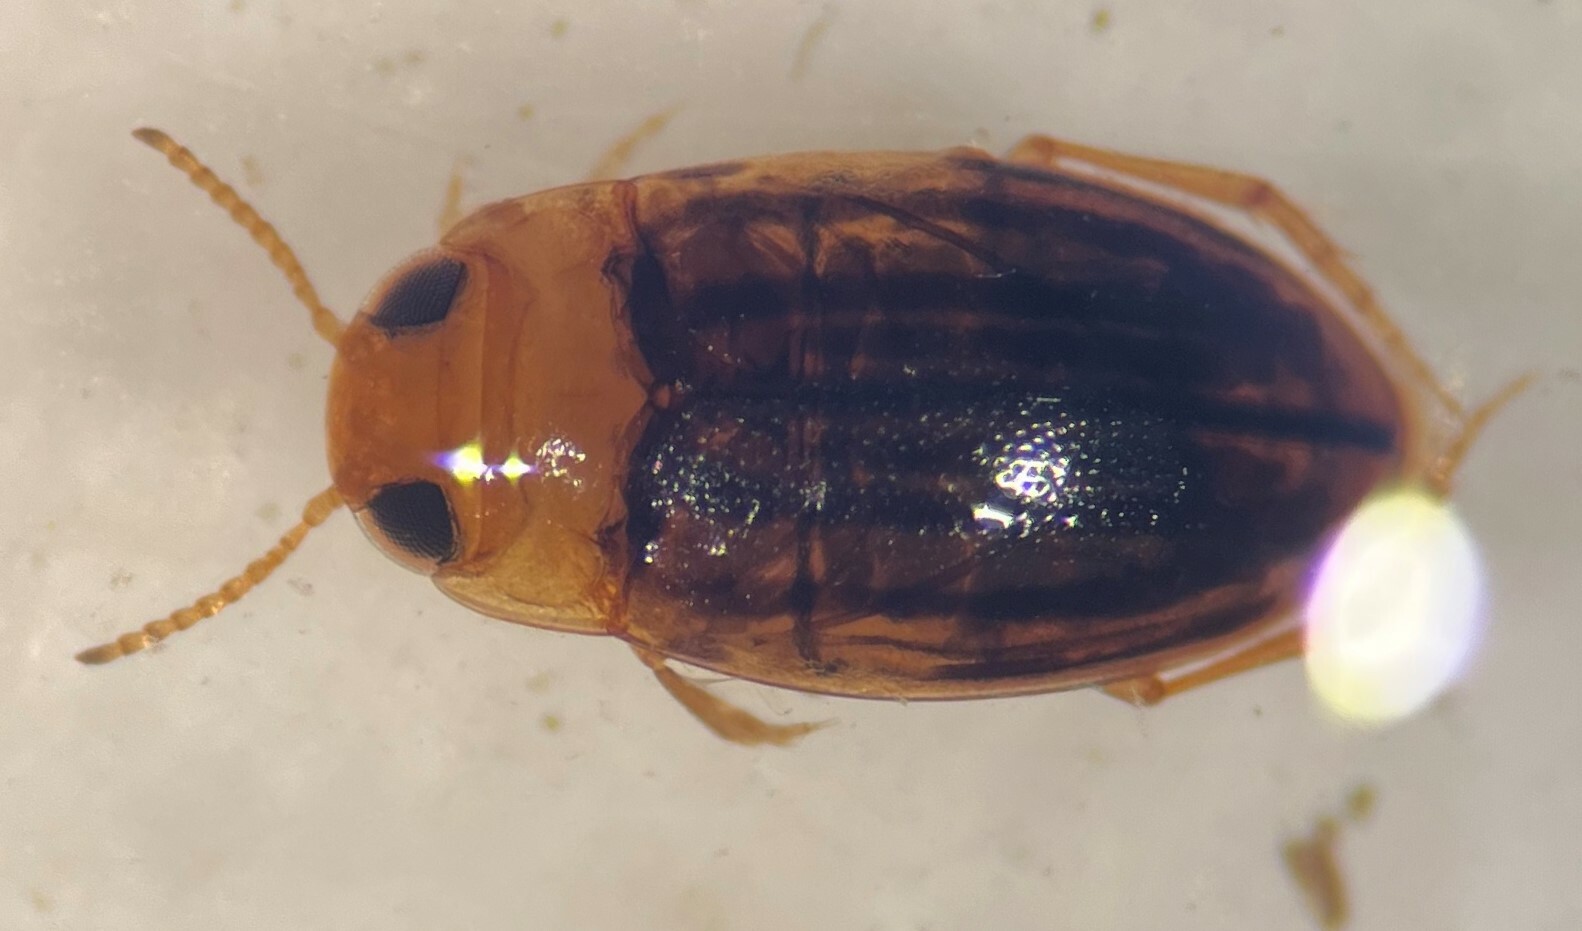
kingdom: Animalia
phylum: Arthropoda
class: Insecta
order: Coleoptera
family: Dytiscidae
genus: Neobidessus
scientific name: Neobidessus pullus
